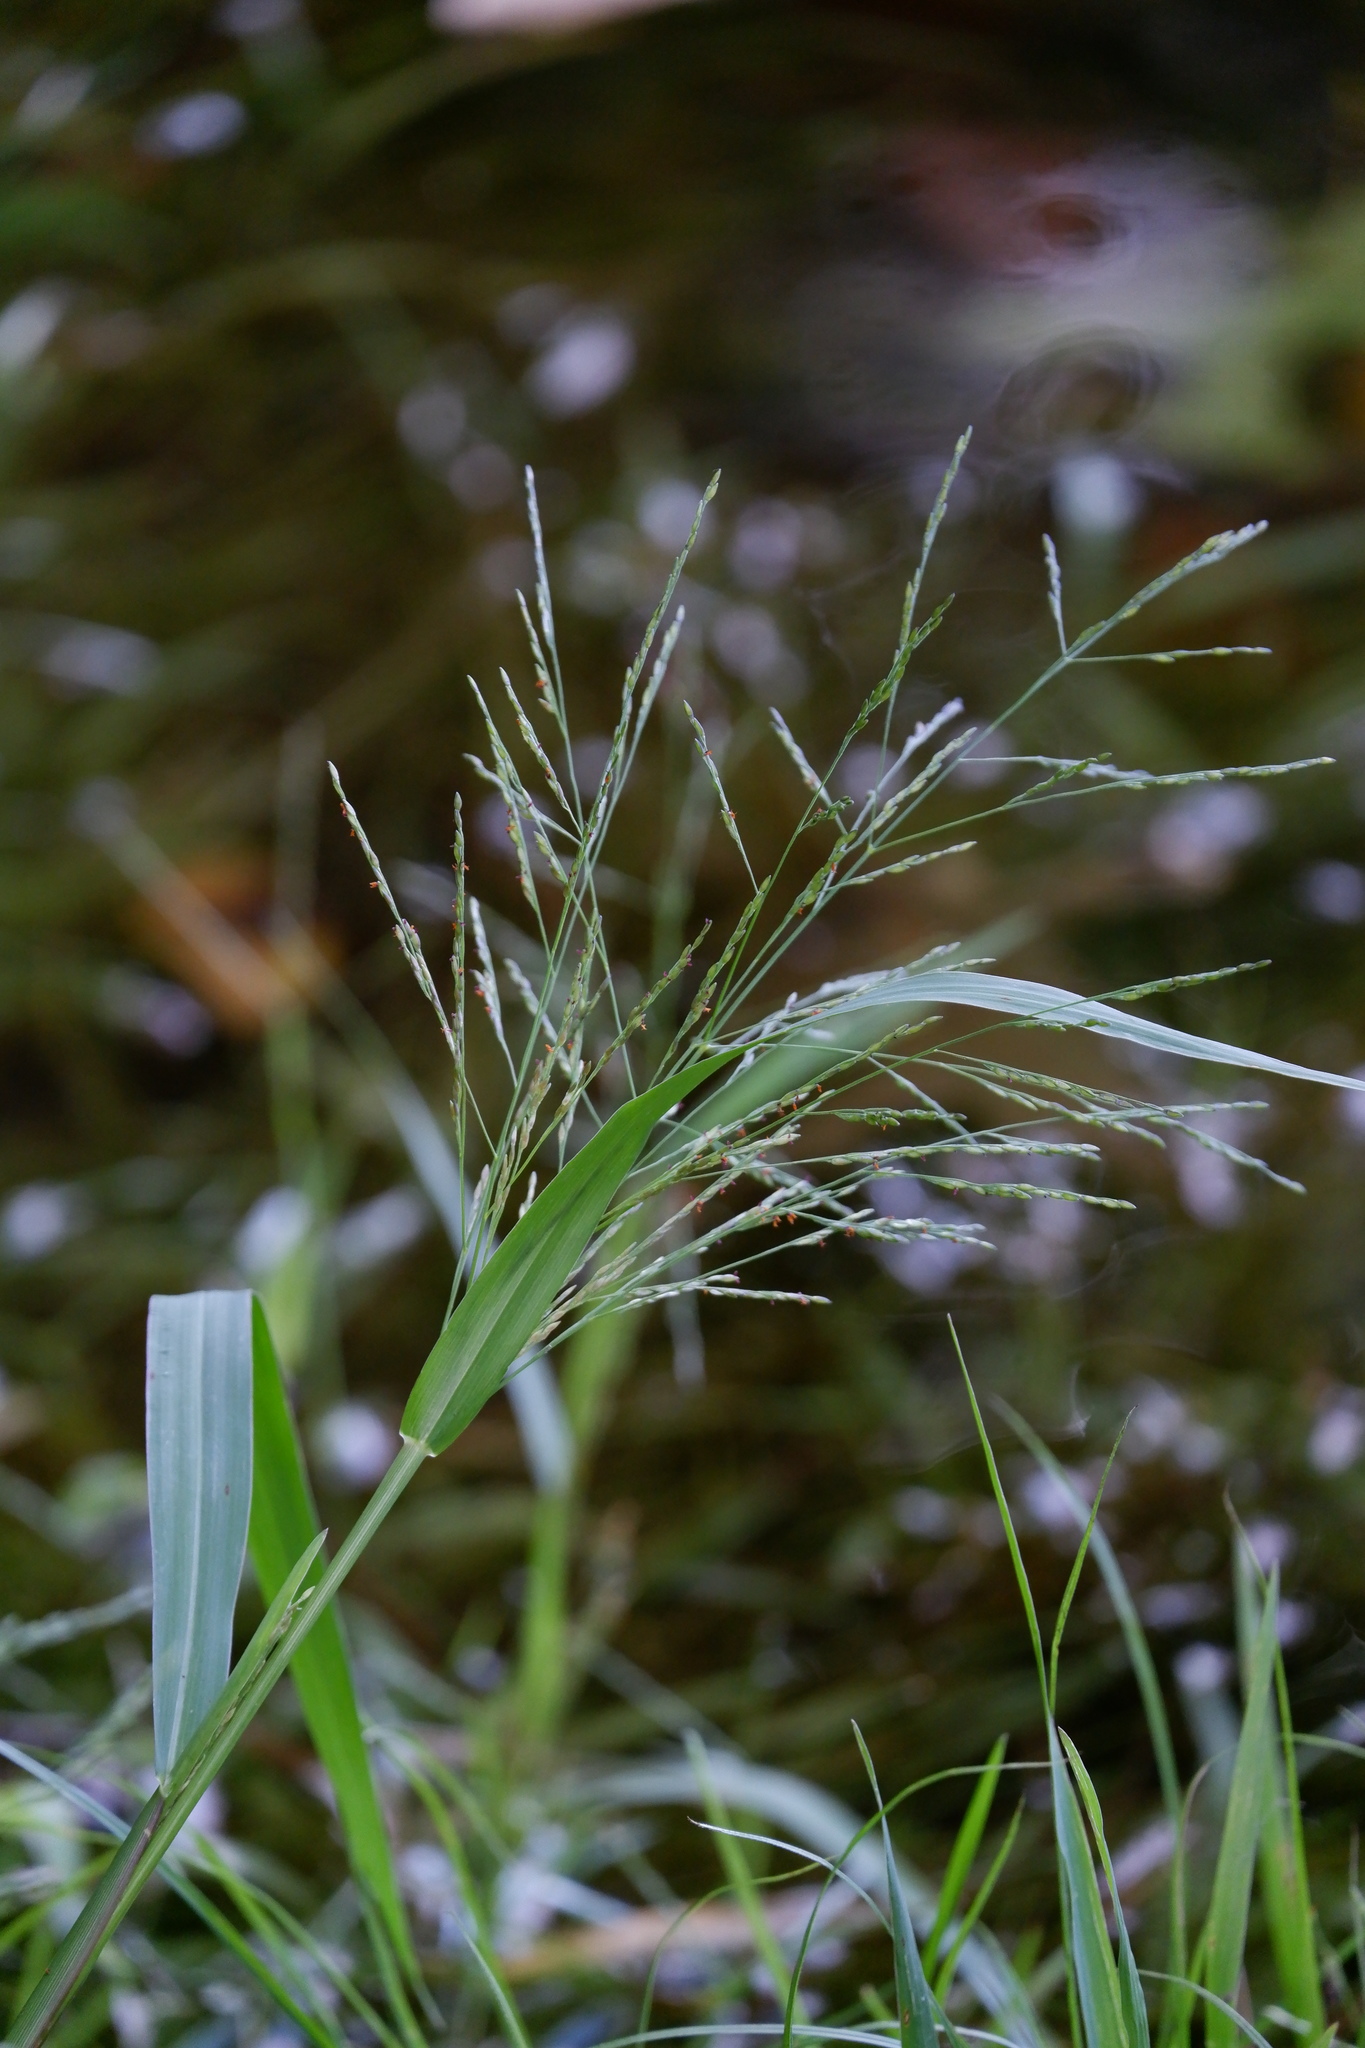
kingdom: Plantae
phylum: Tracheophyta
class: Liliopsida
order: Poales
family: Poaceae
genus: Panicum
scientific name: Panicum dichotomiflorum
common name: Autumn millet
